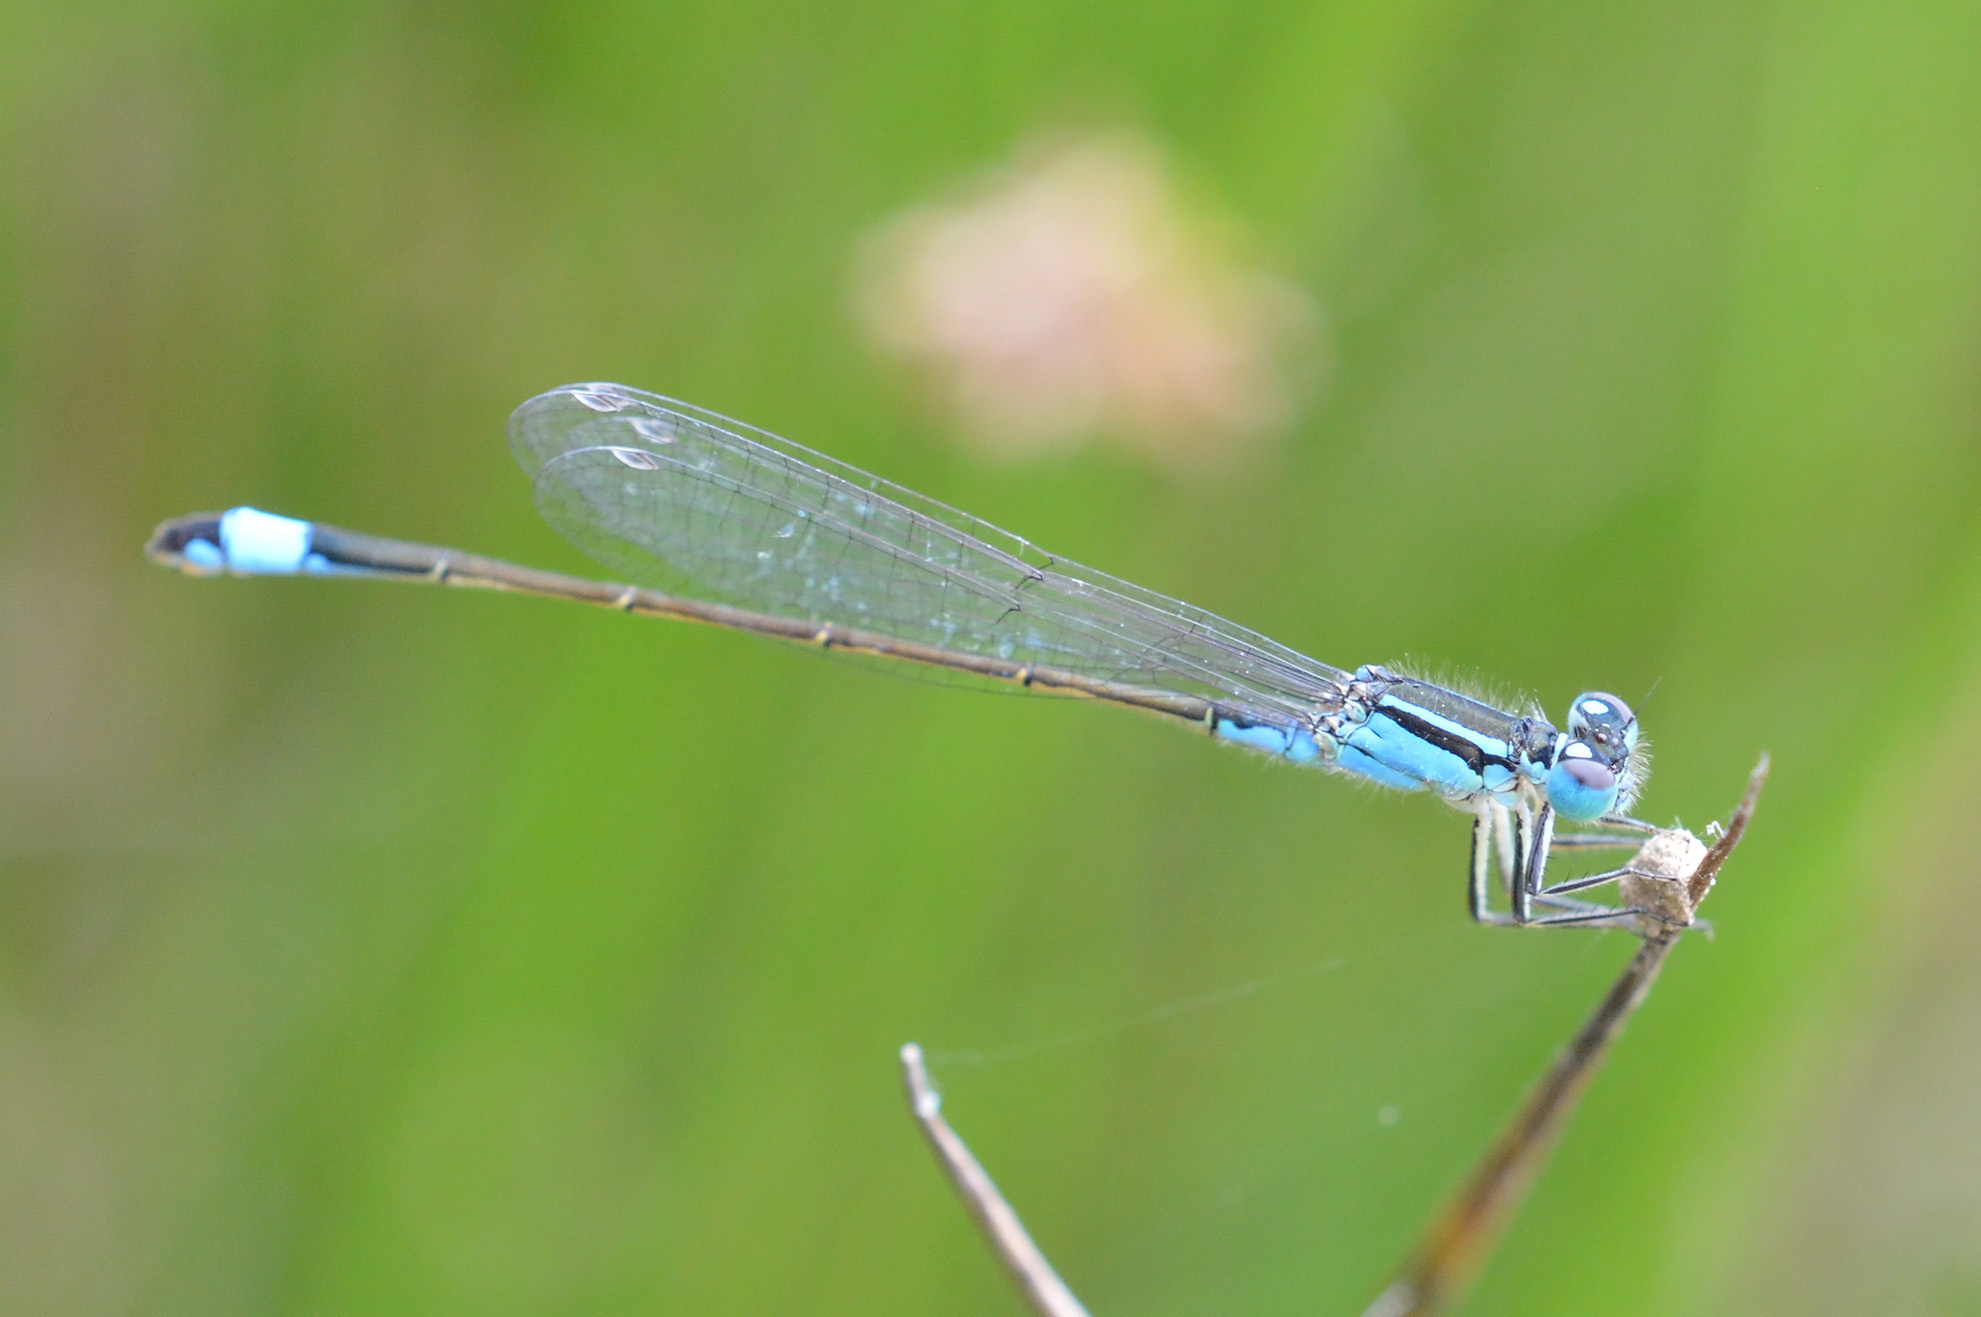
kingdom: Animalia
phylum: Arthropoda
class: Insecta
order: Odonata
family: Coenagrionidae
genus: Ischnura
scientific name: Ischnura elegans
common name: Blue-tailed damselfly
